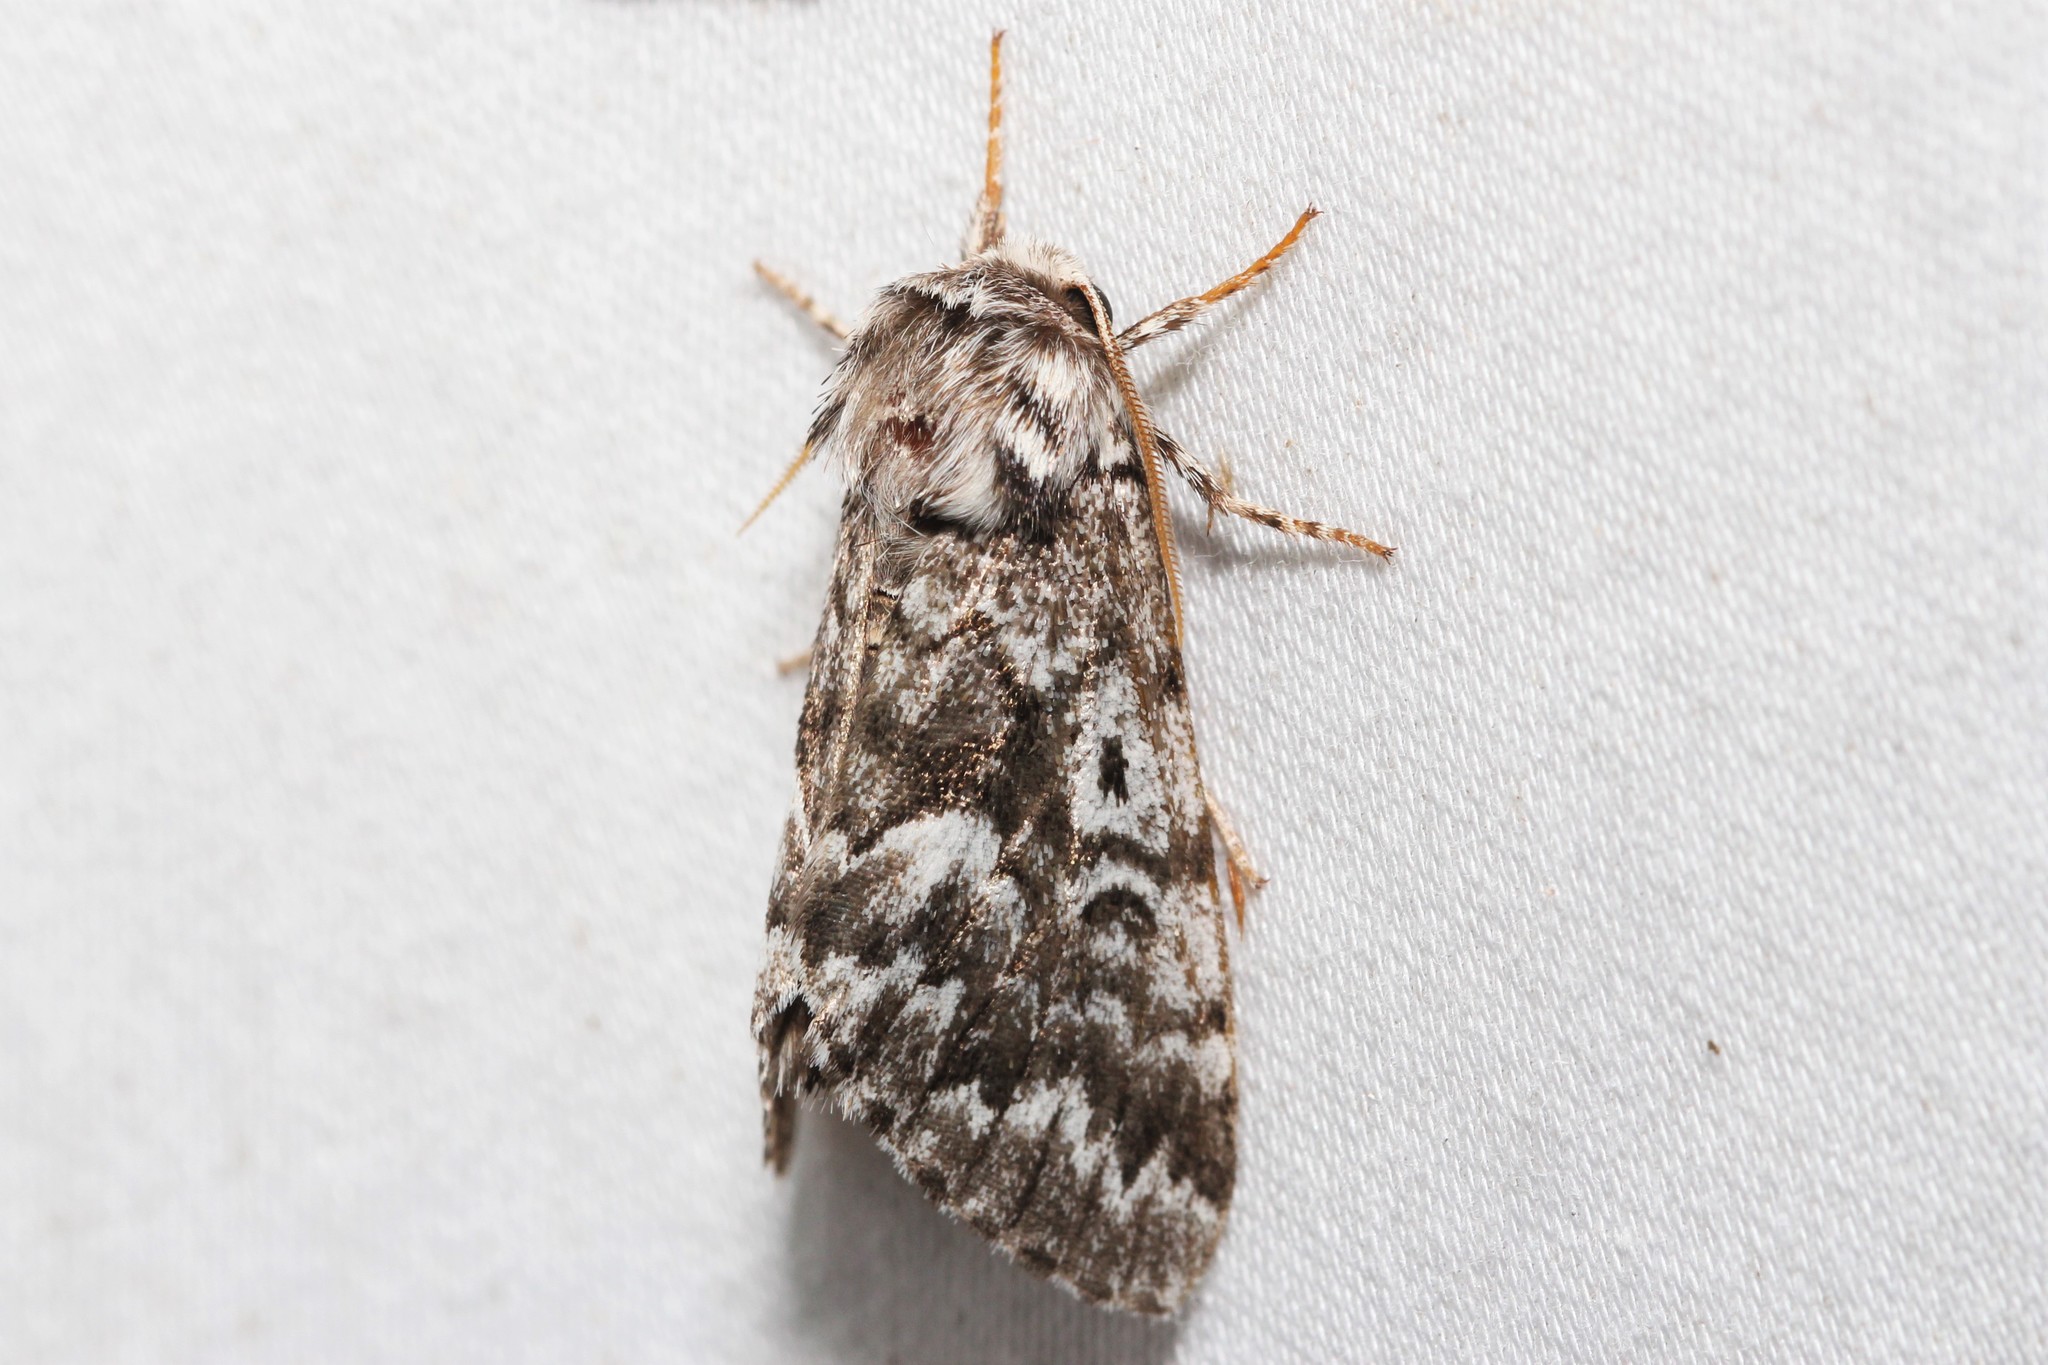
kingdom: Animalia
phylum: Arthropoda
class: Insecta
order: Lepidoptera
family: Noctuidae
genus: Panthea
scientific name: Panthea acronyctoides
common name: Black zigzag moth
